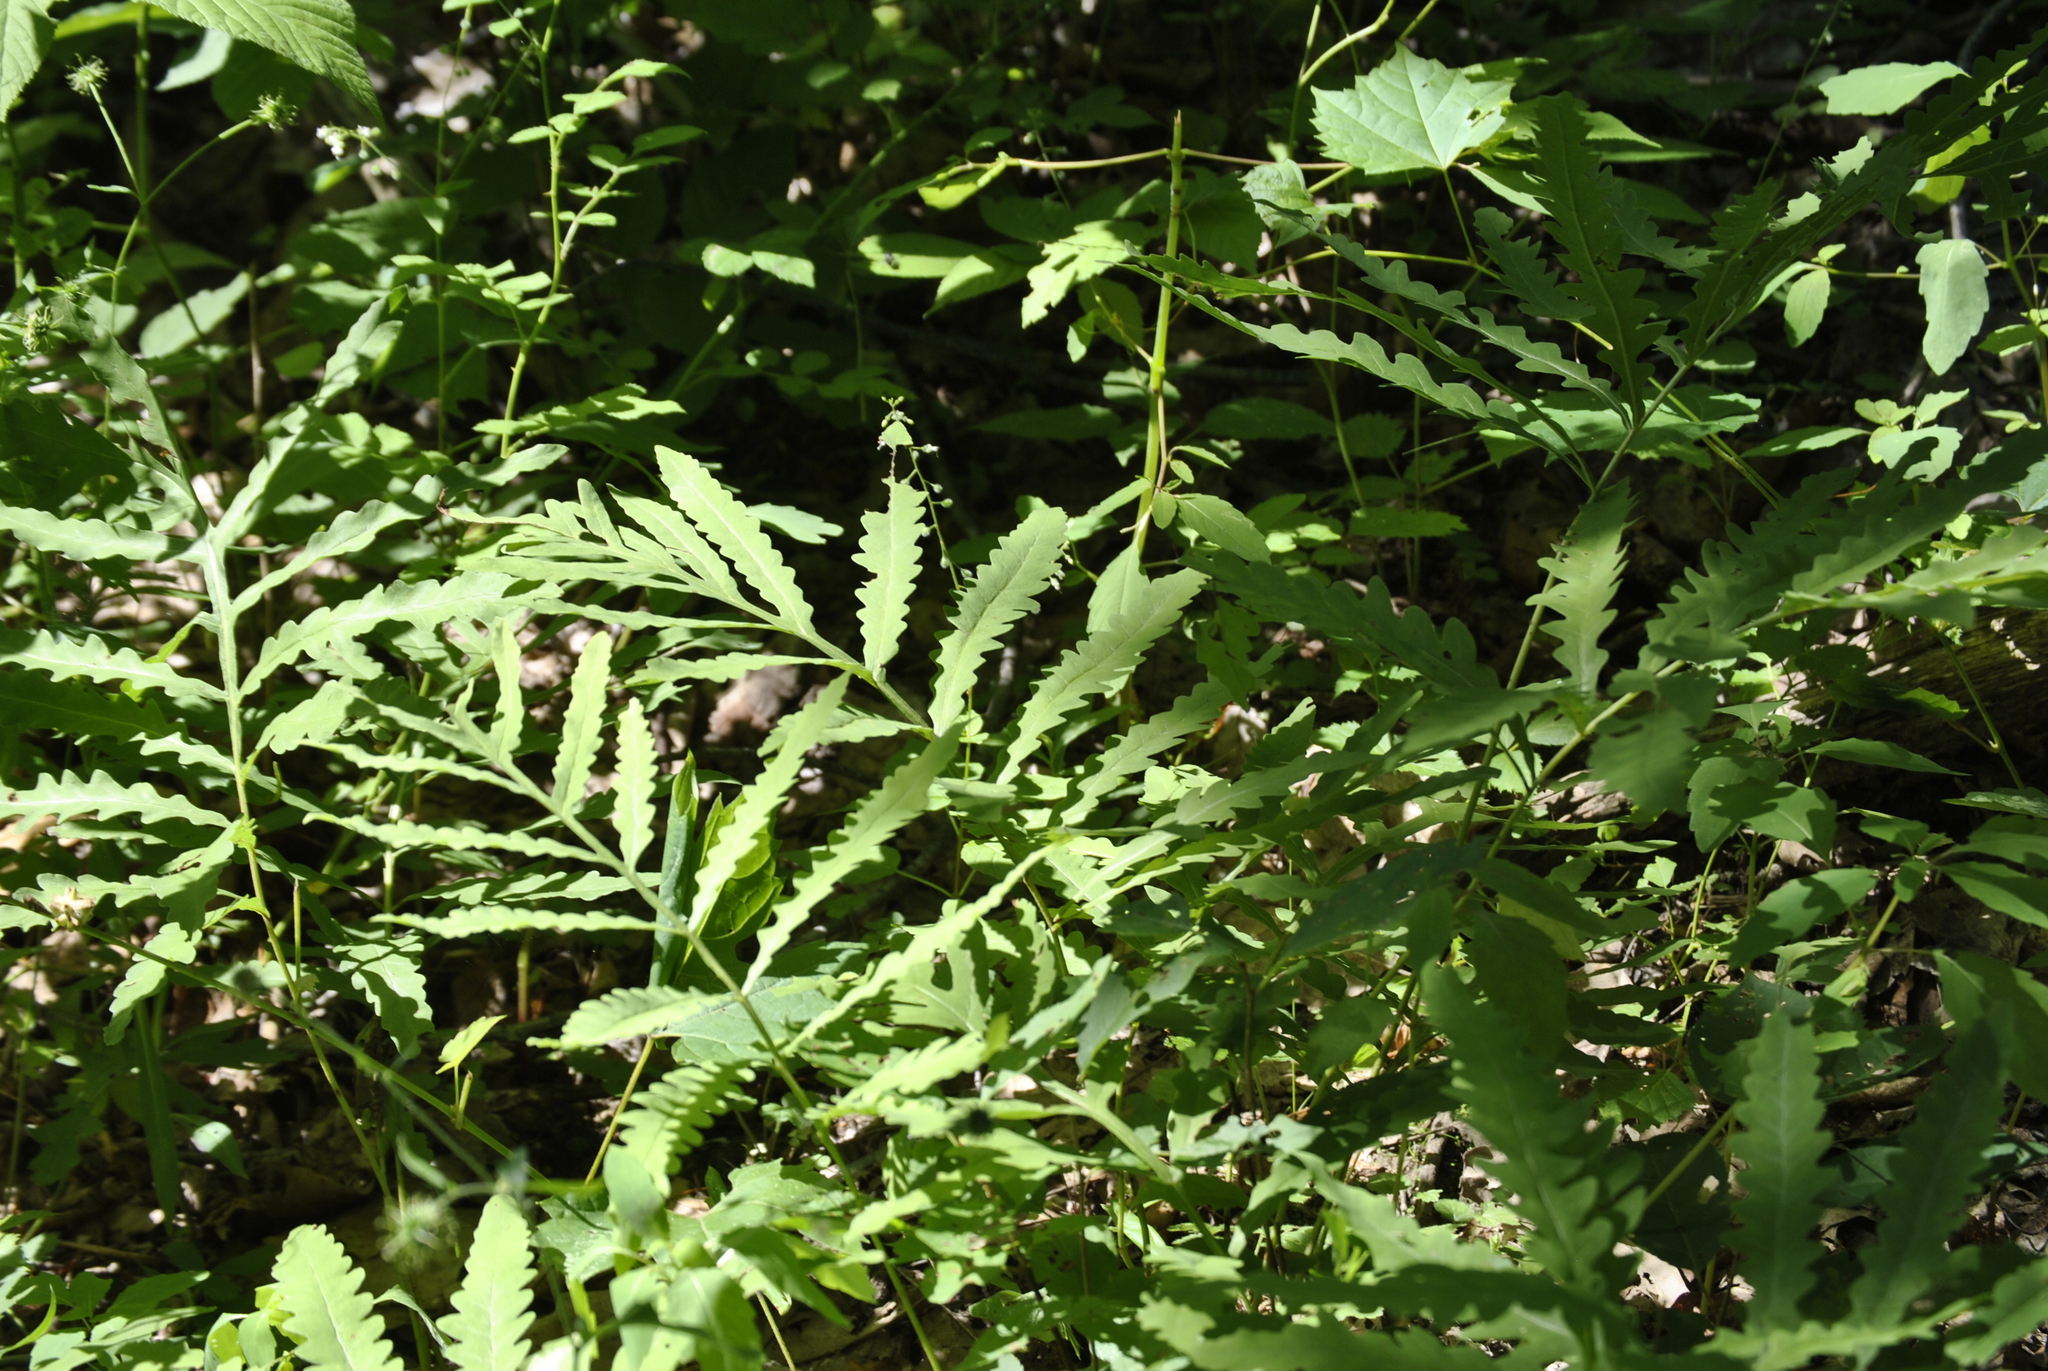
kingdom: Plantae
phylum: Tracheophyta
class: Polypodiopsida
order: Polypodiales
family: Onocleaceae
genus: Onoclea
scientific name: Onoclea sensibilis
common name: Sensitive fern
